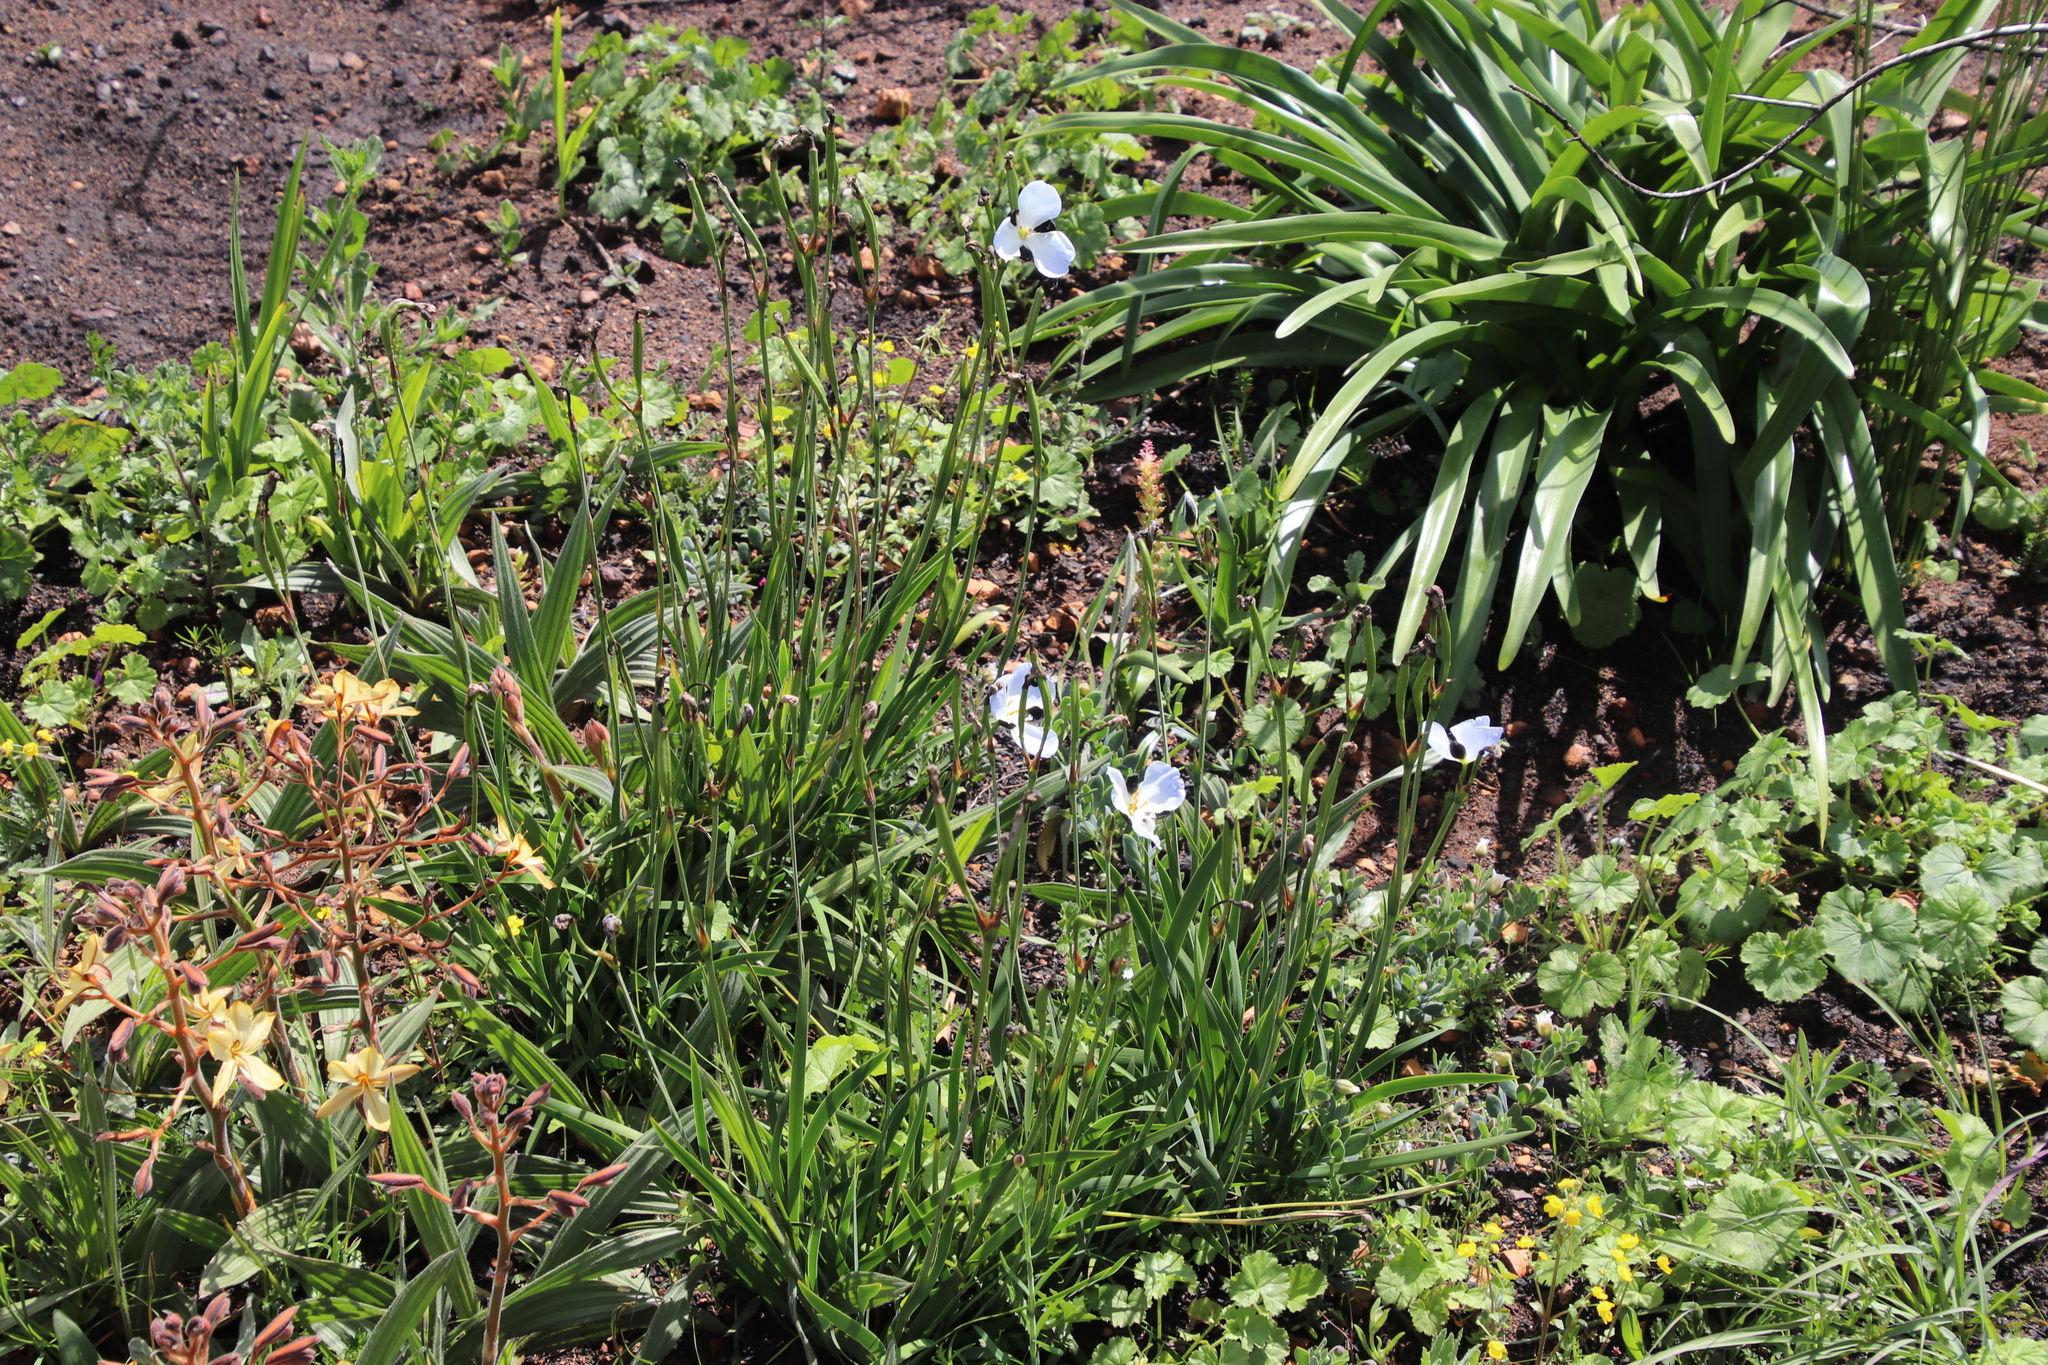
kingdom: Plantae
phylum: Tracheophyta
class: Liliopsida
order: Asparagales
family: Iridaceae
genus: Aristea
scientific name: Aristea lugens
